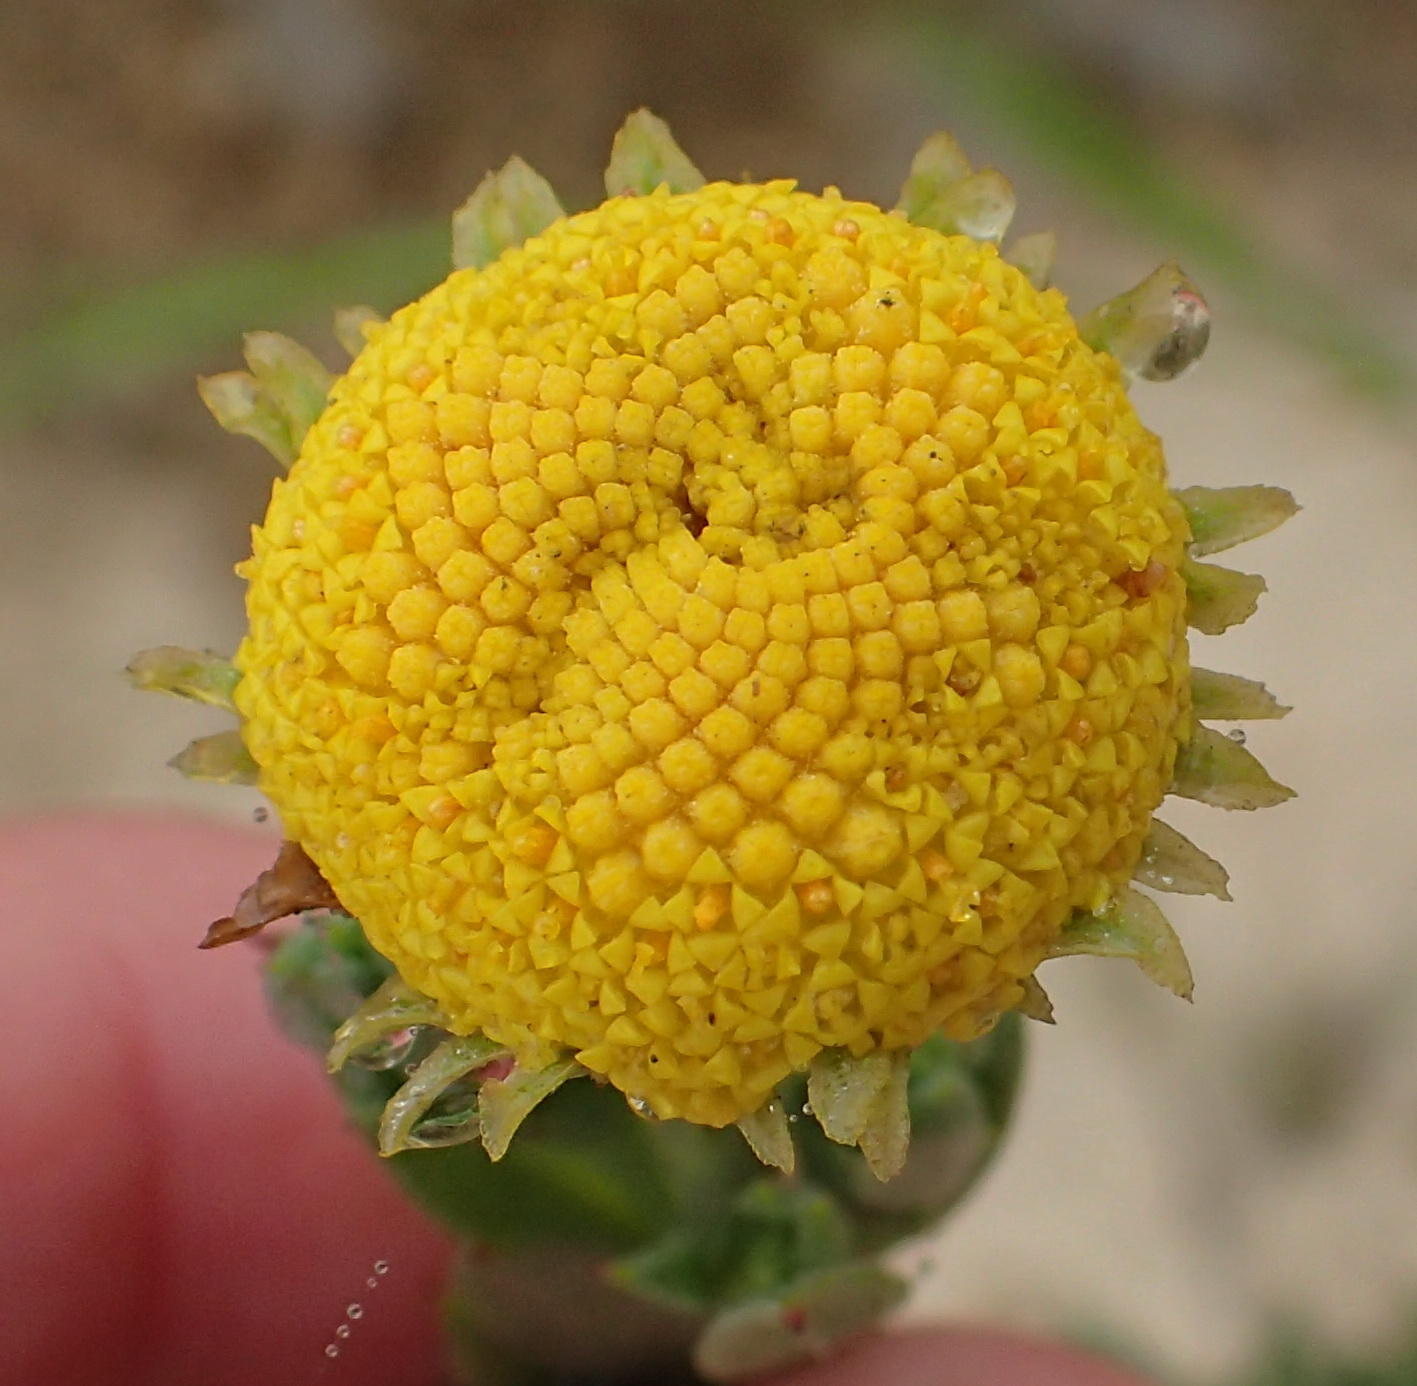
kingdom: Plantae
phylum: Tracheophyta
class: Magnoliopsida
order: Asterales
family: Asteraceae
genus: Schistostephium
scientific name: Schistostephium umbellatum
